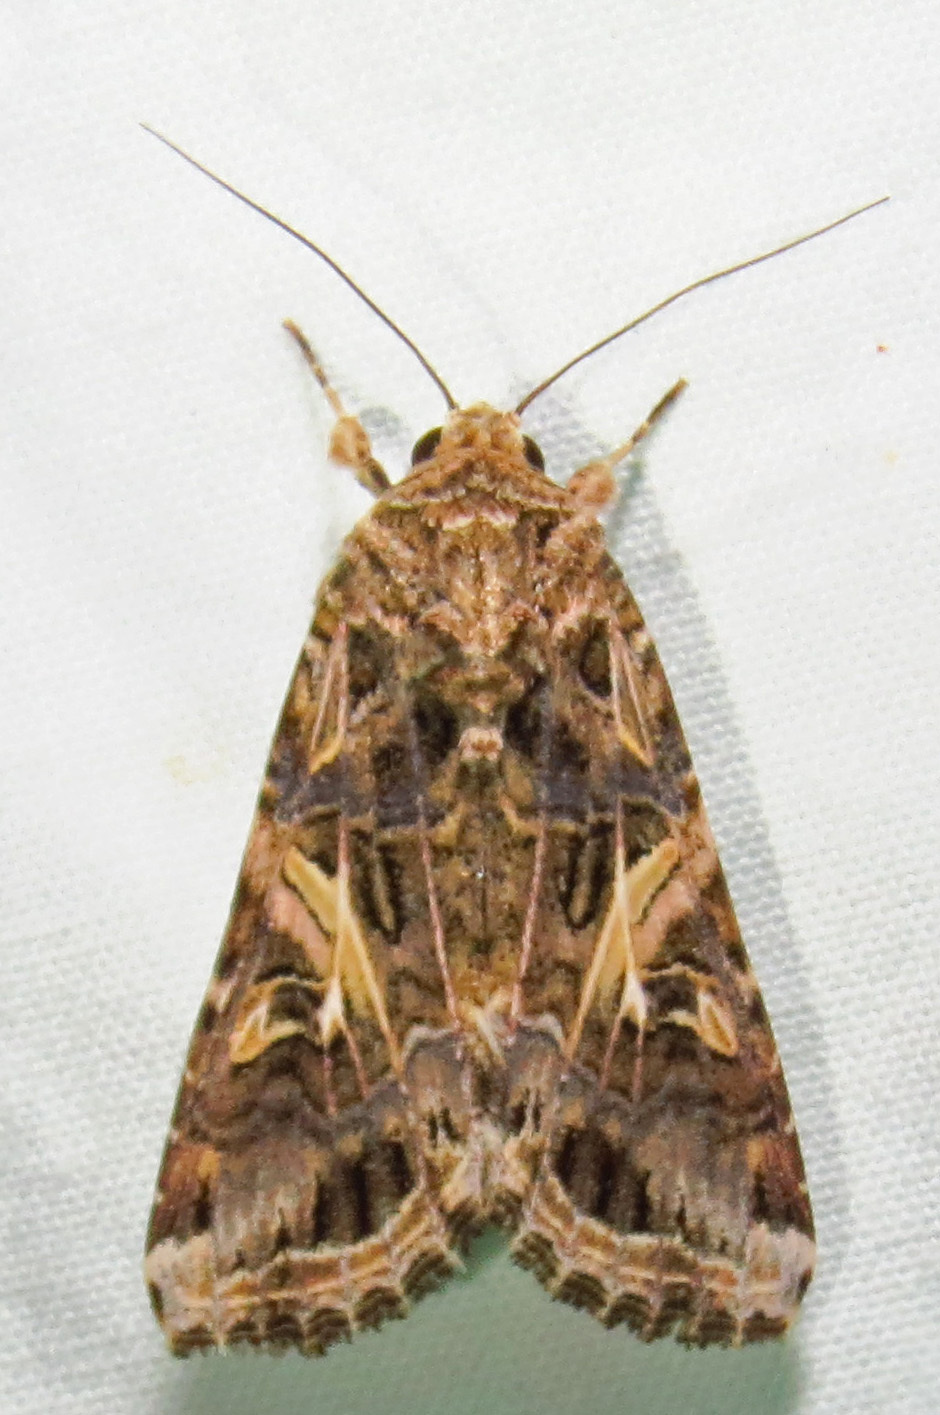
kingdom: Animalia
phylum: Arthropoda
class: Insecta
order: Lepidoptera
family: Noctuidae
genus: Spodoptera
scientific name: Spodoptera ornithogalli
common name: Yellow-striped armyworm
